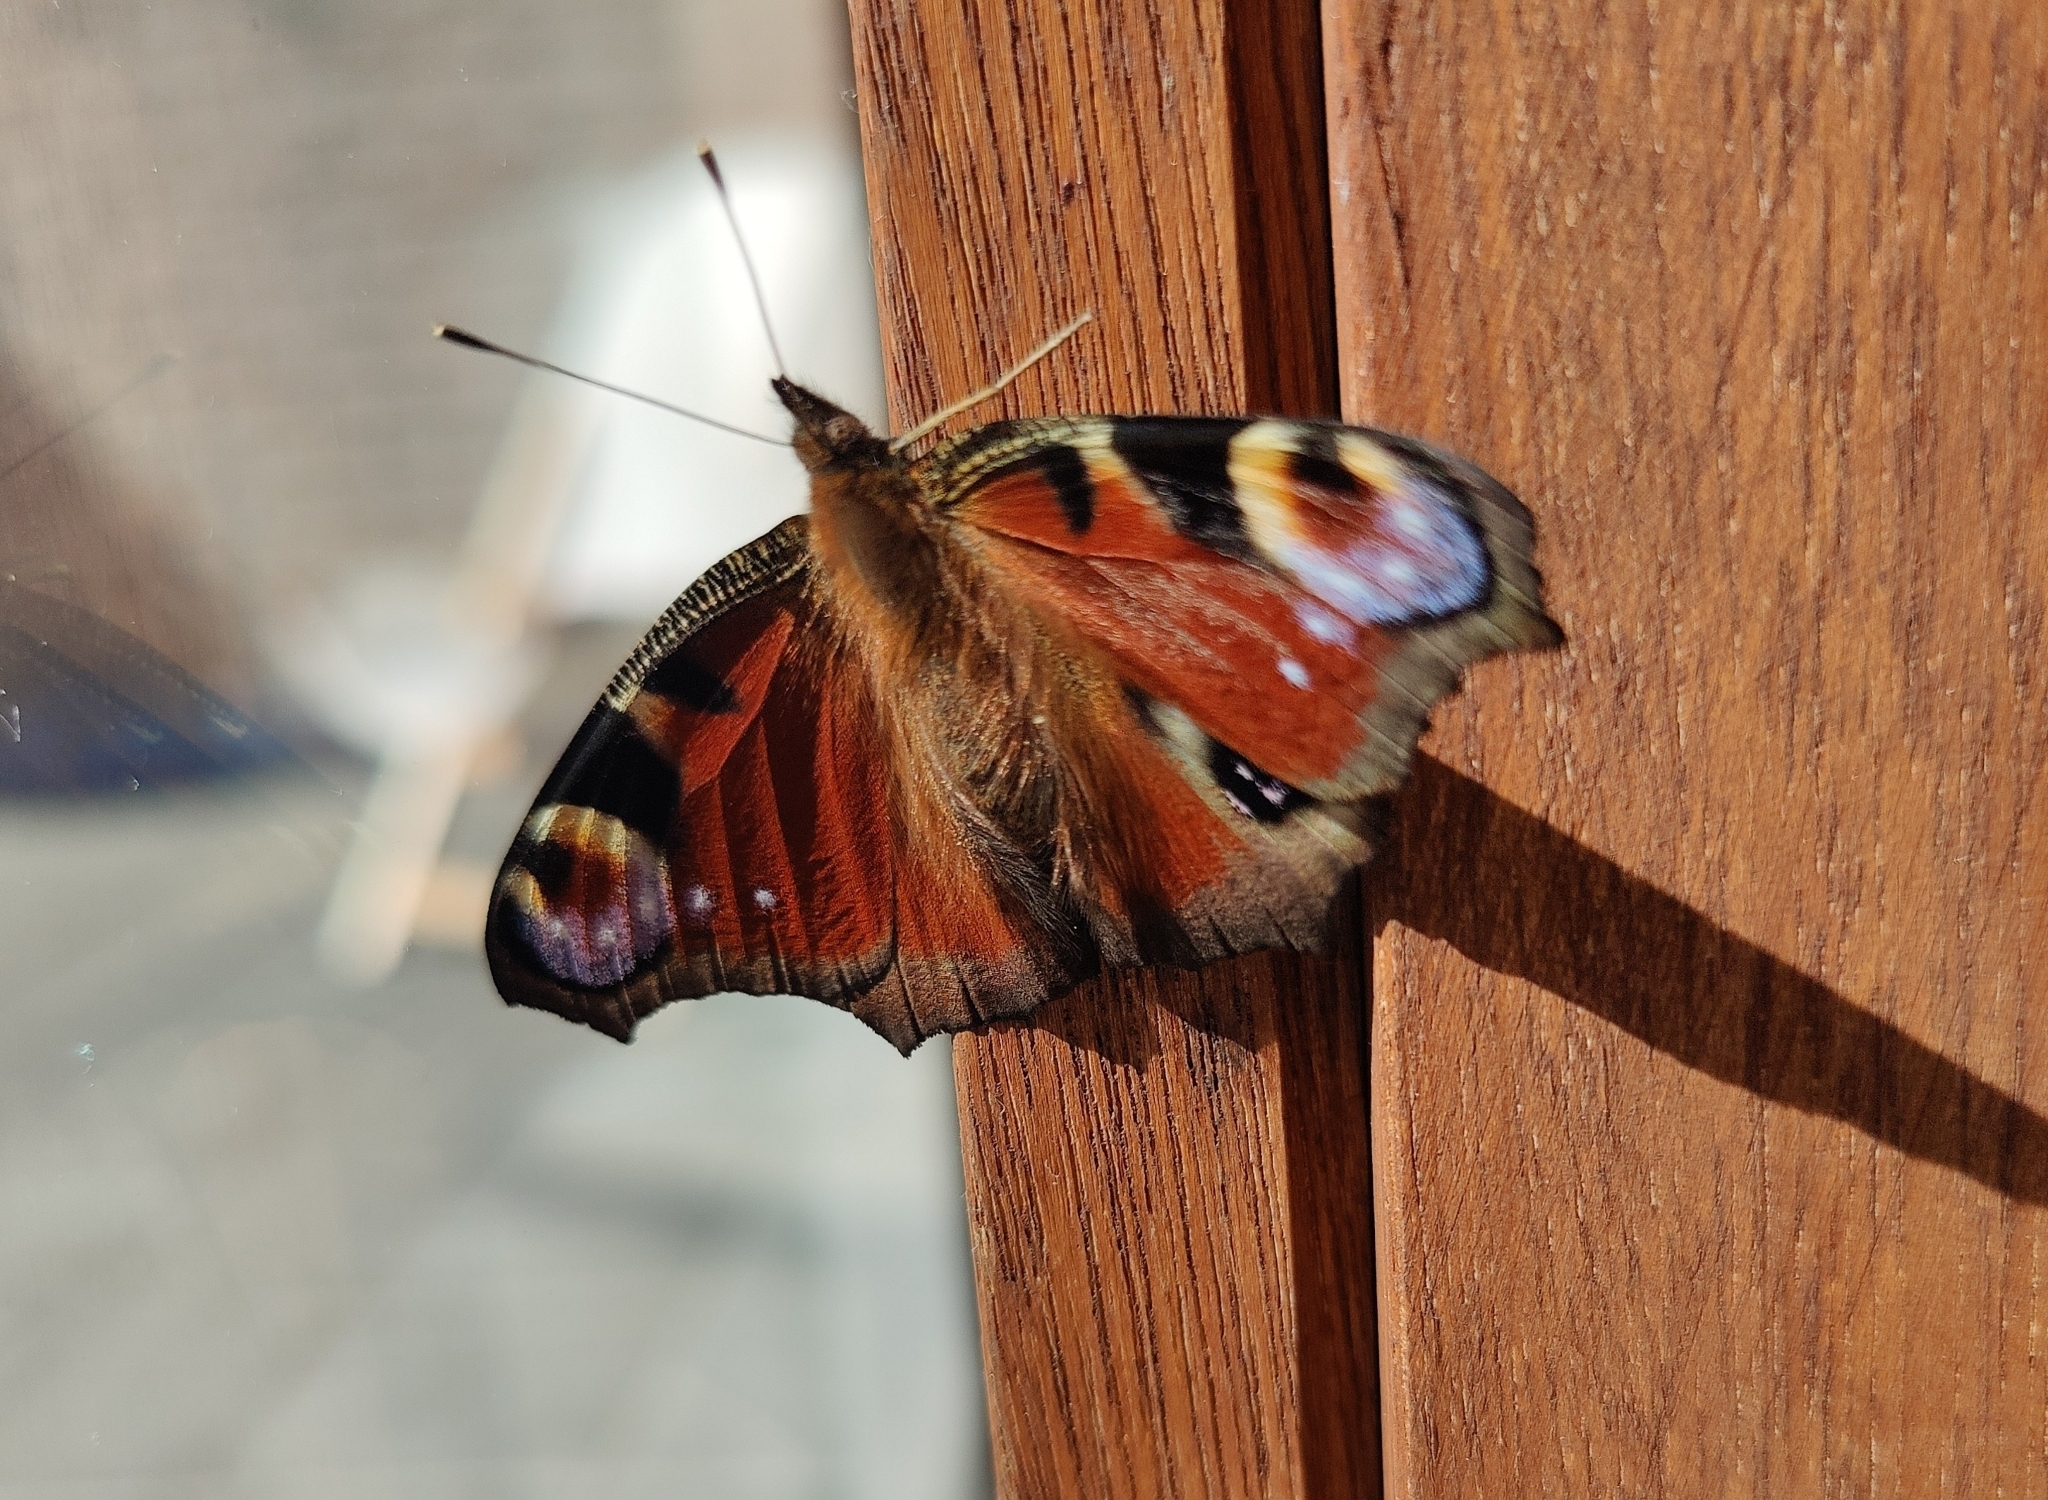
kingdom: Animalia
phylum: Arthropoda
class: Insecta
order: Lepidoptera
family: Nymphalidae
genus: Aglais
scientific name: Aglais io
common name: Peacock
